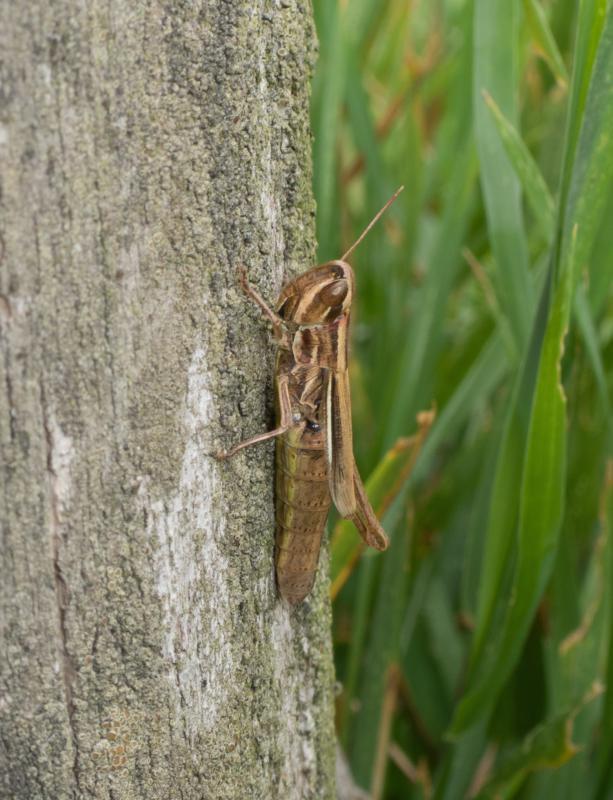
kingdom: Animalia
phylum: Arthropoda
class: Insecta
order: Orthoptera
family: Acrididae
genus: Euchorthippus
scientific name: Euchorthippus declivus
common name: Common straw grasshopper
